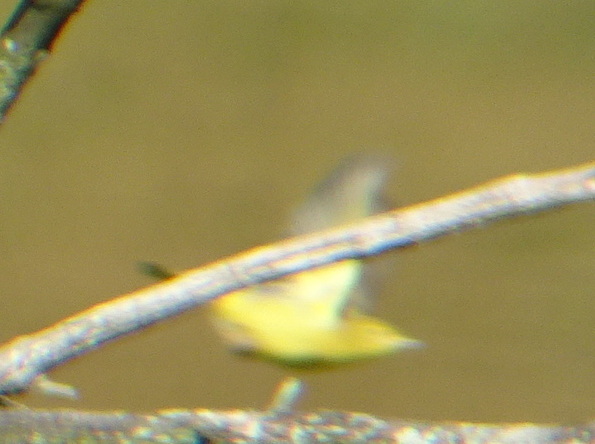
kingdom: Animalia
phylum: Chordata
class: Aves
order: Passeriformes
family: Parulidae
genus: Setophaga
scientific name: Setophaga petechia
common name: Yellow warbler
